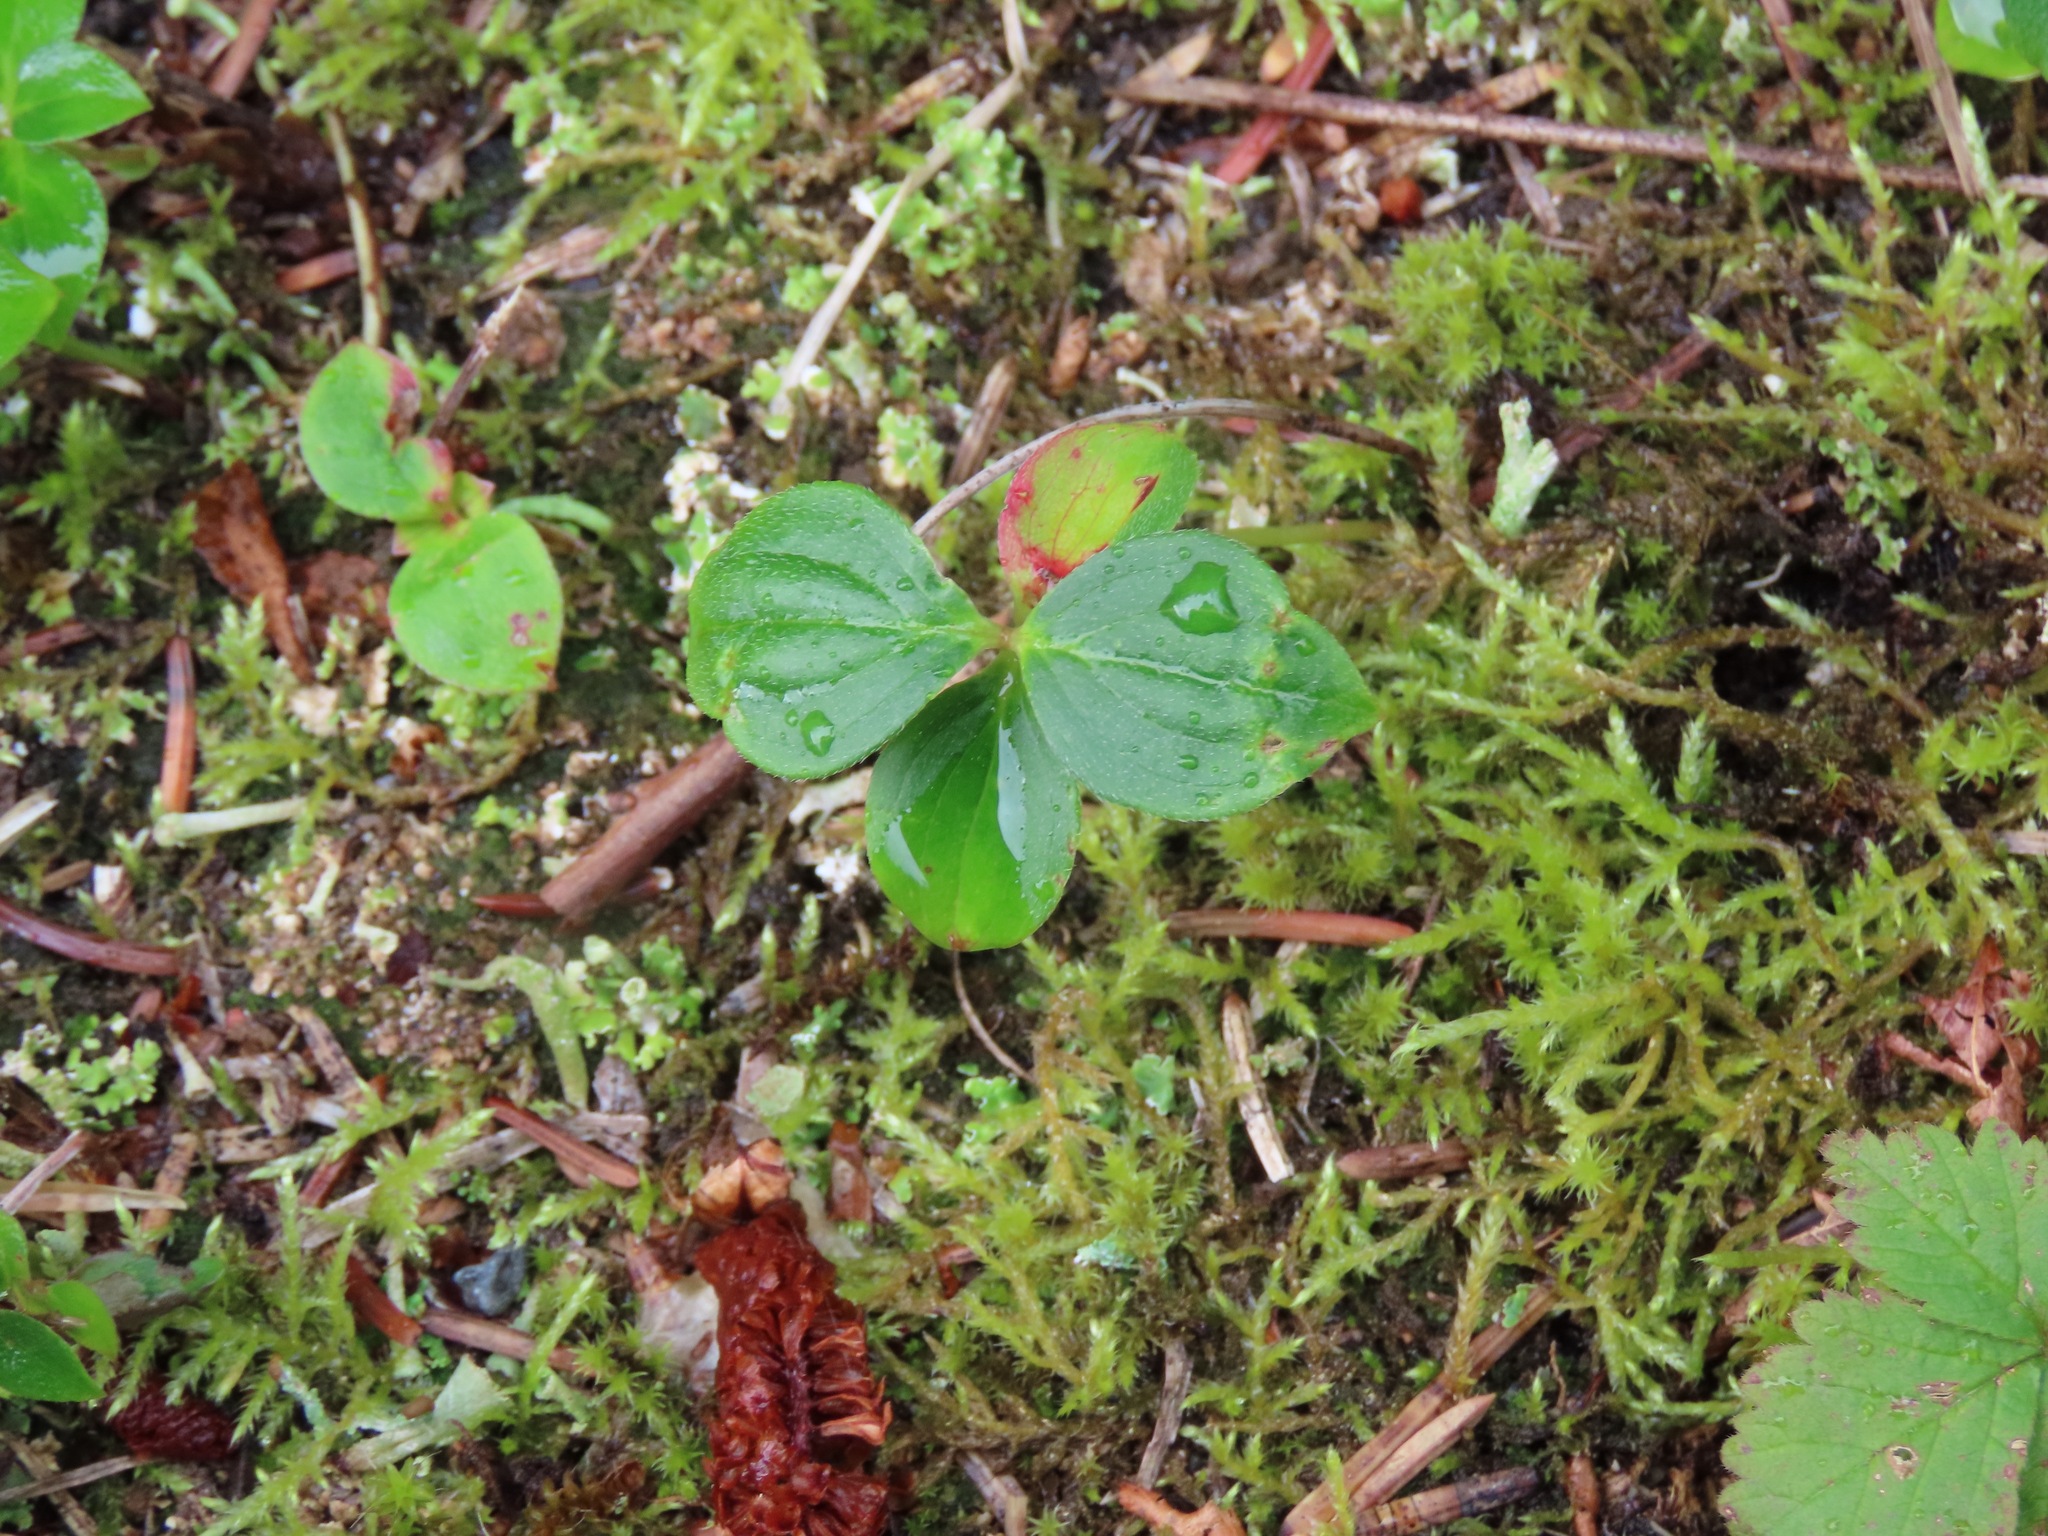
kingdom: Plantae
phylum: Tracheophyta
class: Magnoliopsida
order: Cornales
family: Cornaceae
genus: Cornus
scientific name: Cornus unalaschkensis
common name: Alaska bunchberry
